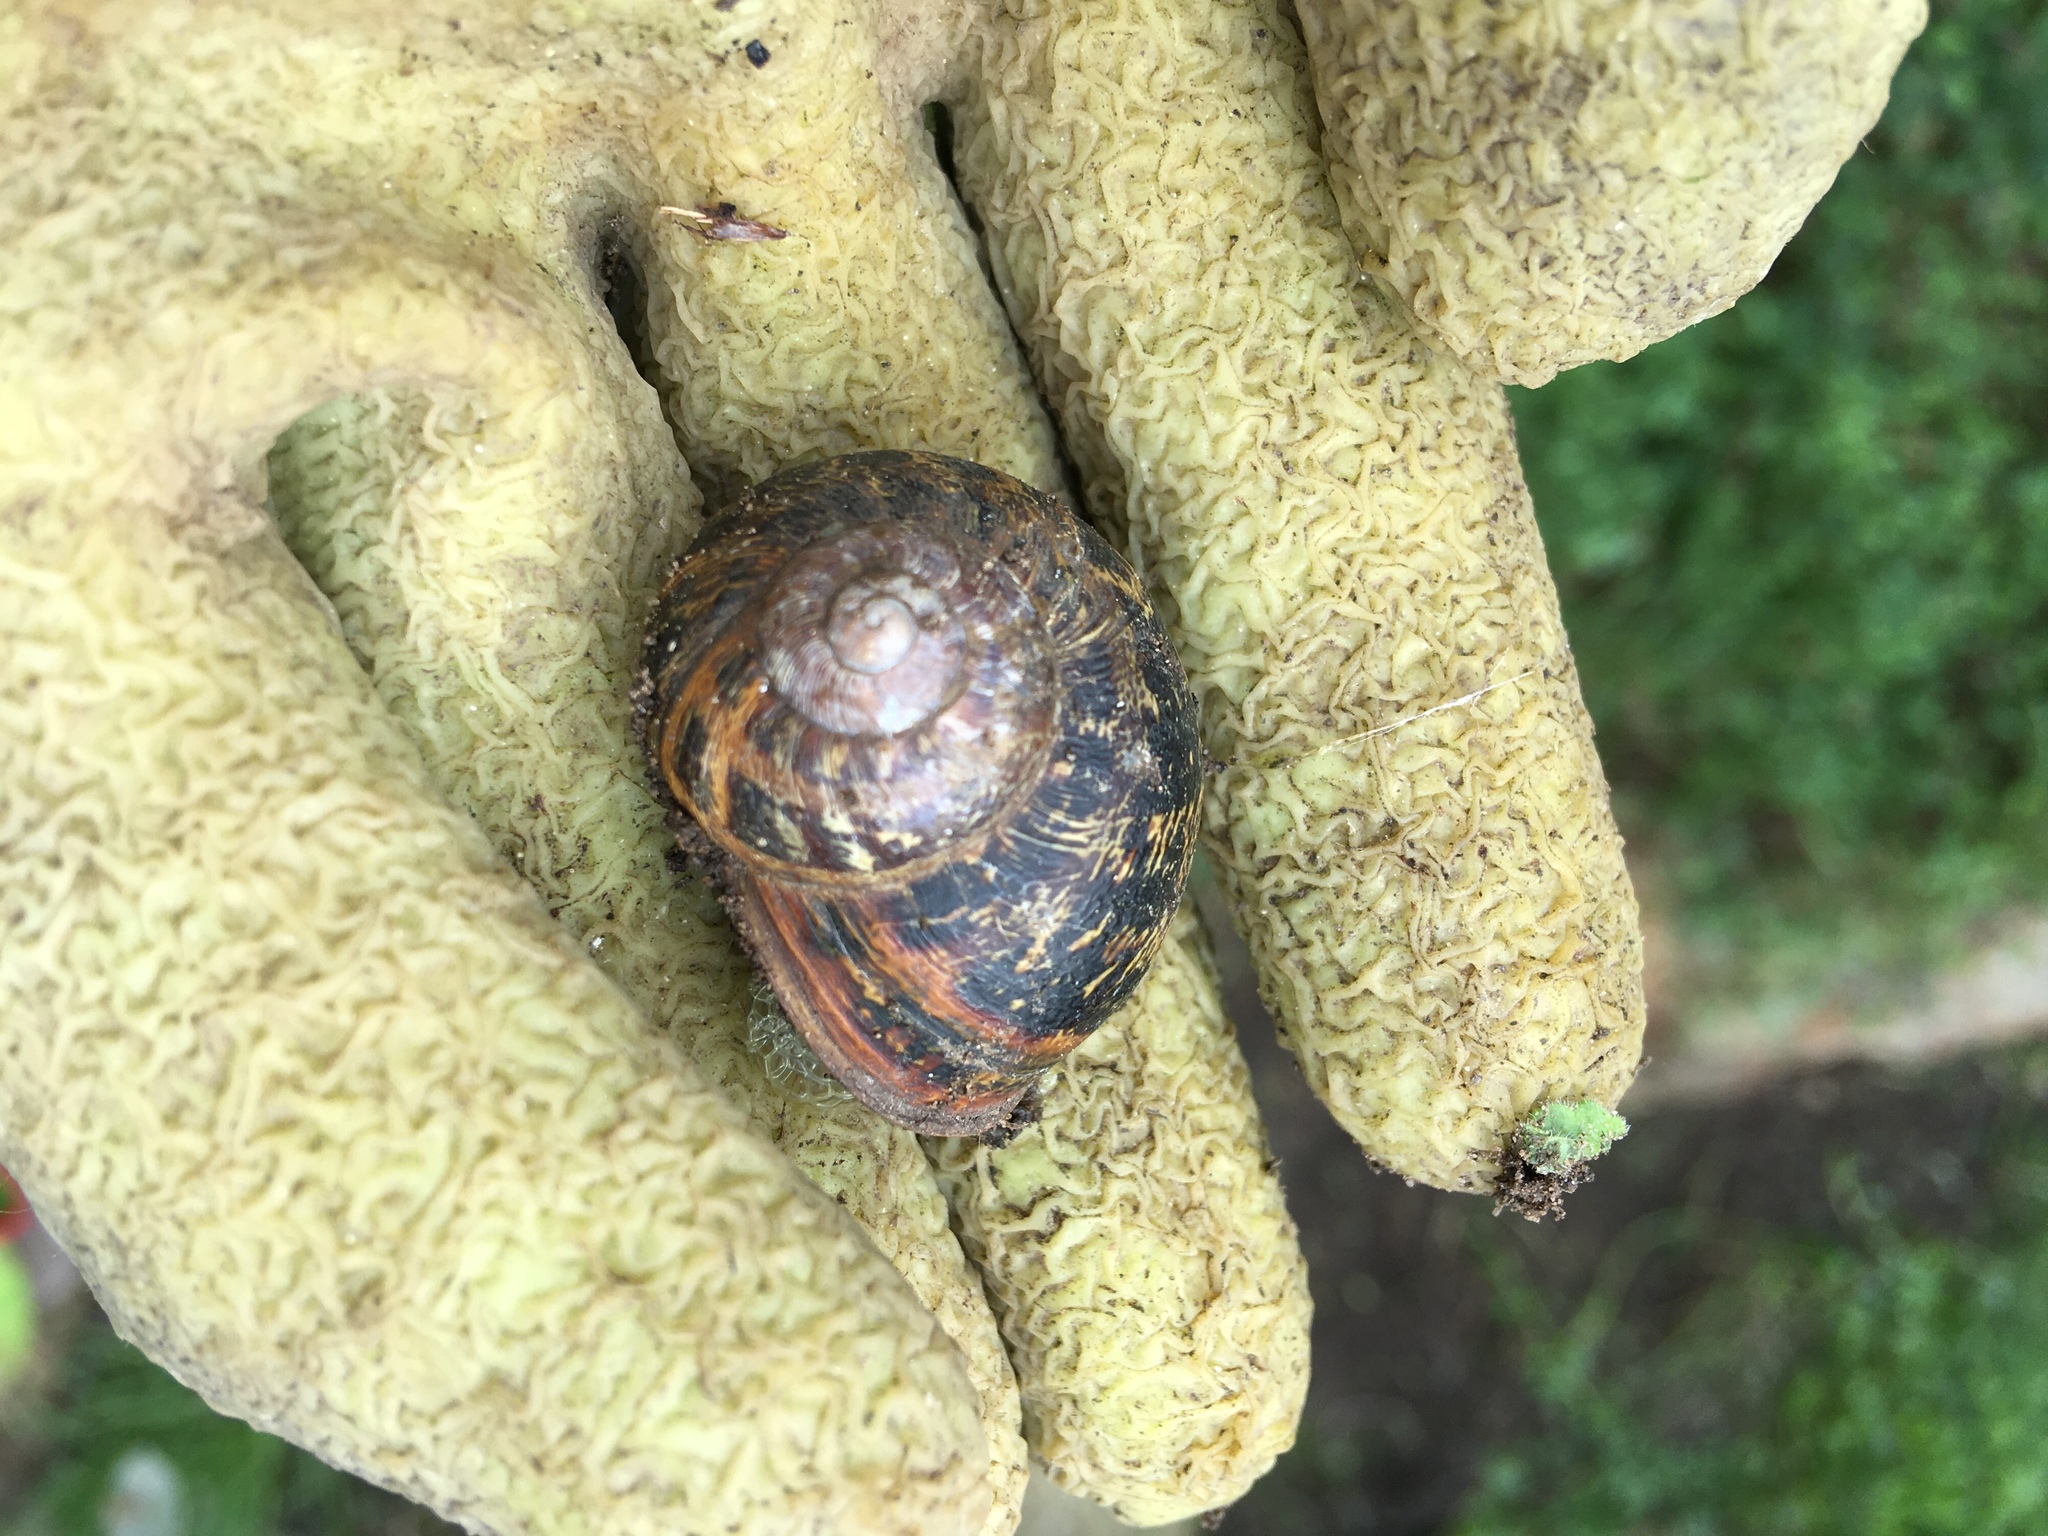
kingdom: Animalia
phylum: Mollusca
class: Gastropoda
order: Stylommatophora
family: Helicidae
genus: Cornu
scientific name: Cornu aspersum
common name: Brown garden snail
